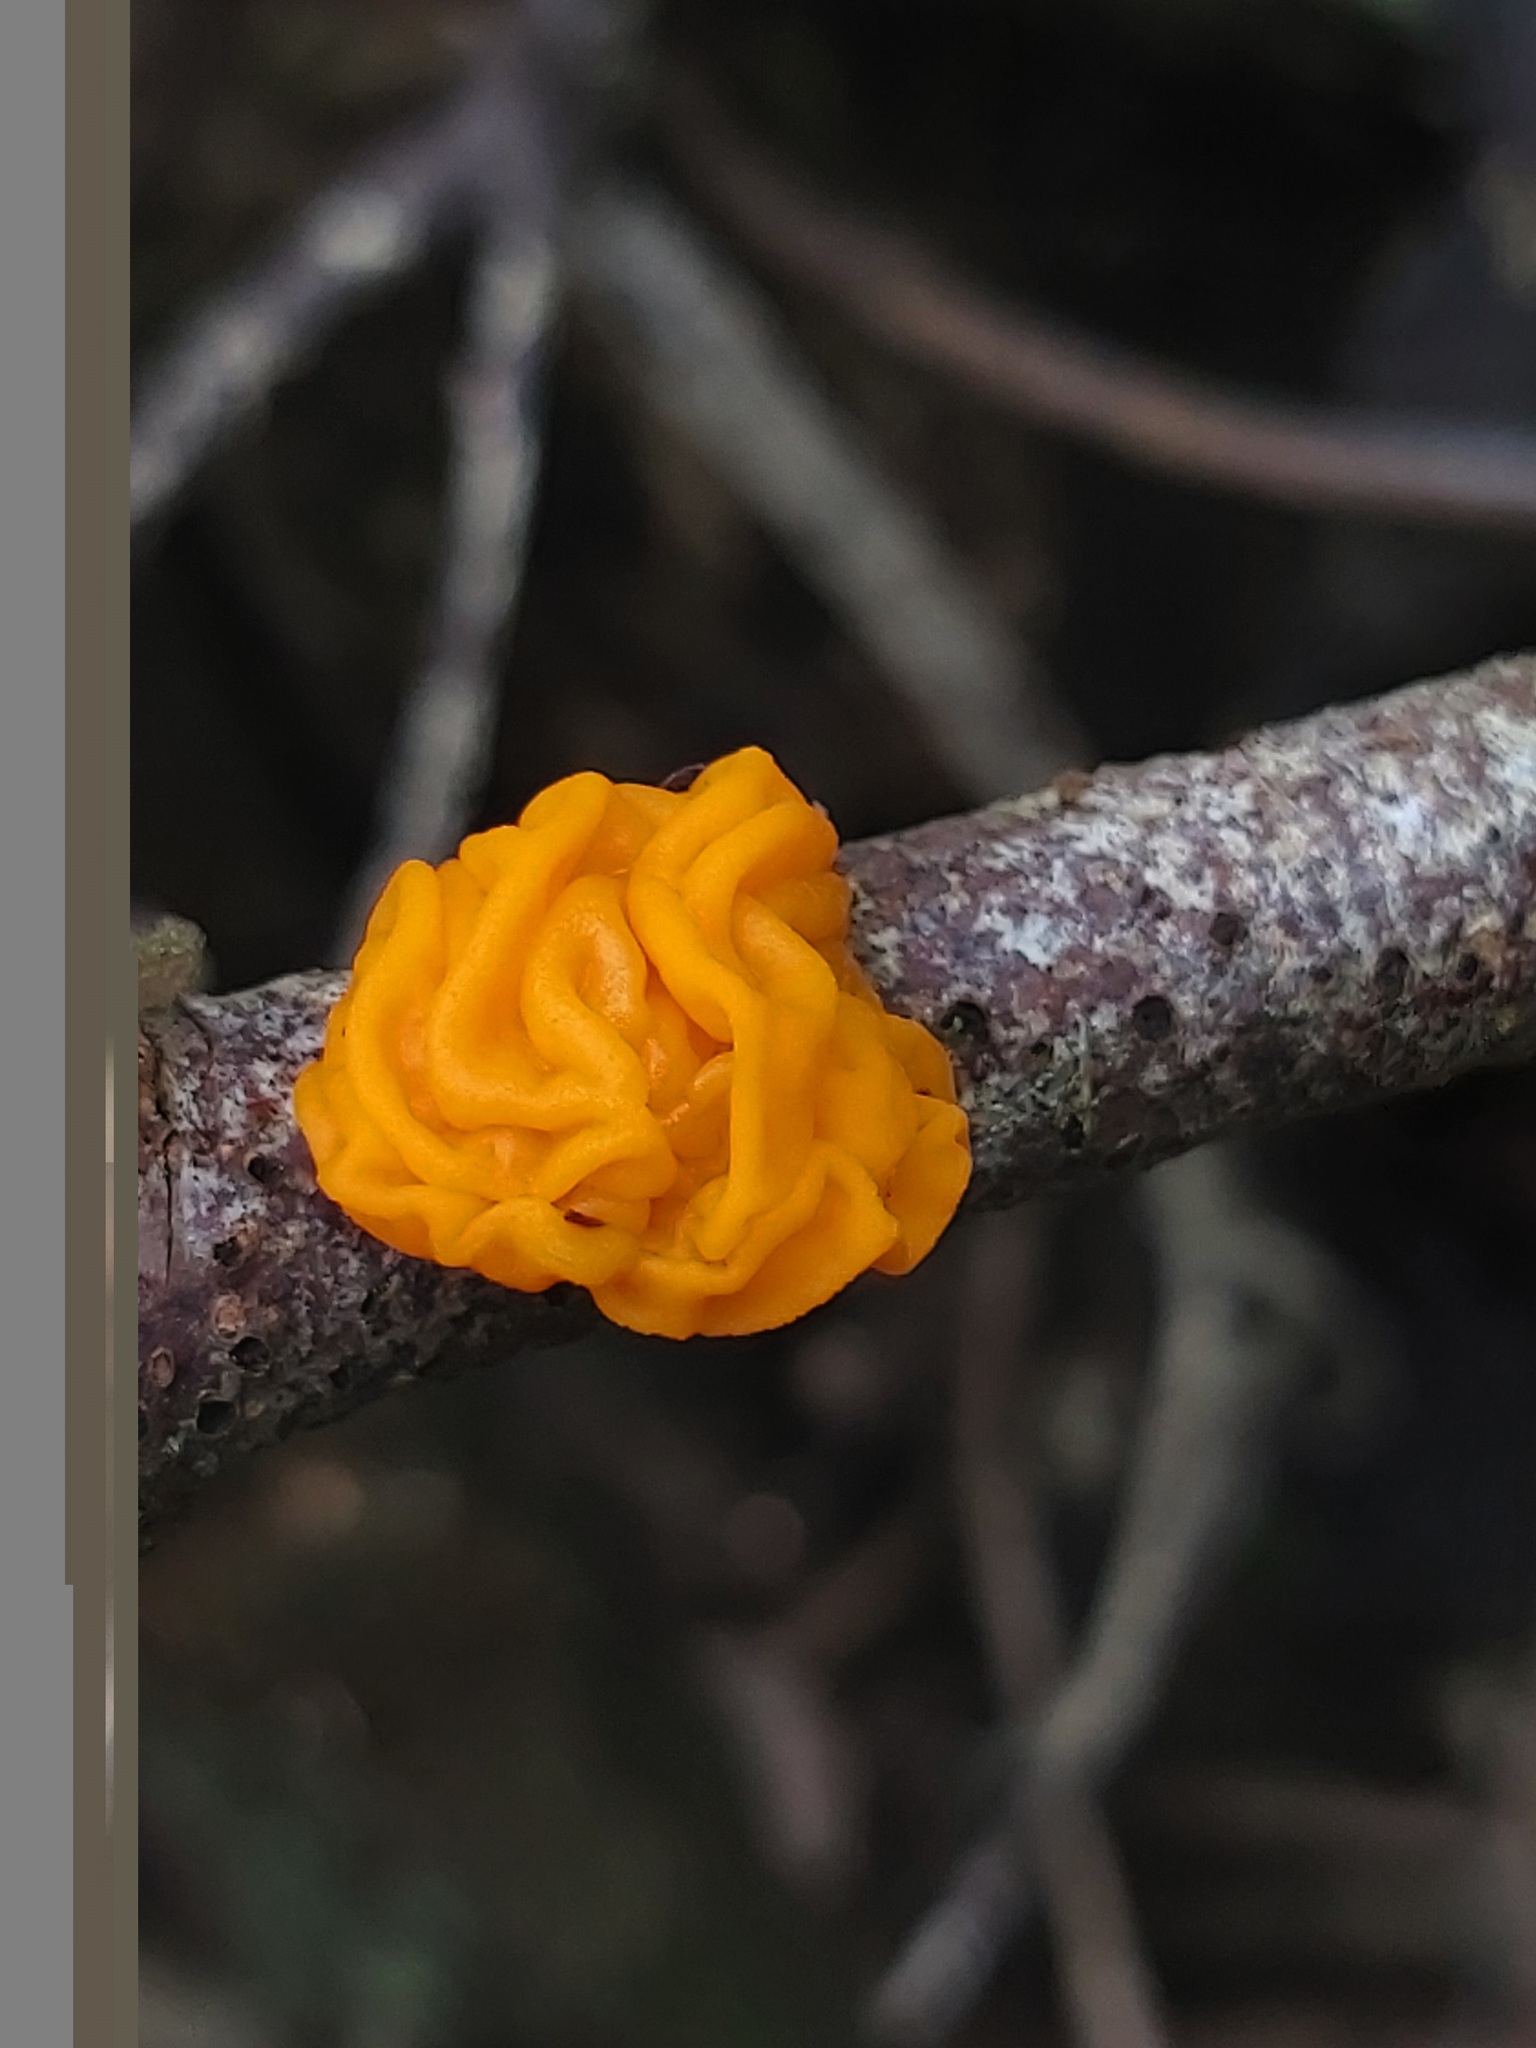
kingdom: Fungi
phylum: Basidiomycota
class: Tremellomycetes
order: Tremellales
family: Tremellaceae
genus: Tremella
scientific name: Tremella mesenterica
